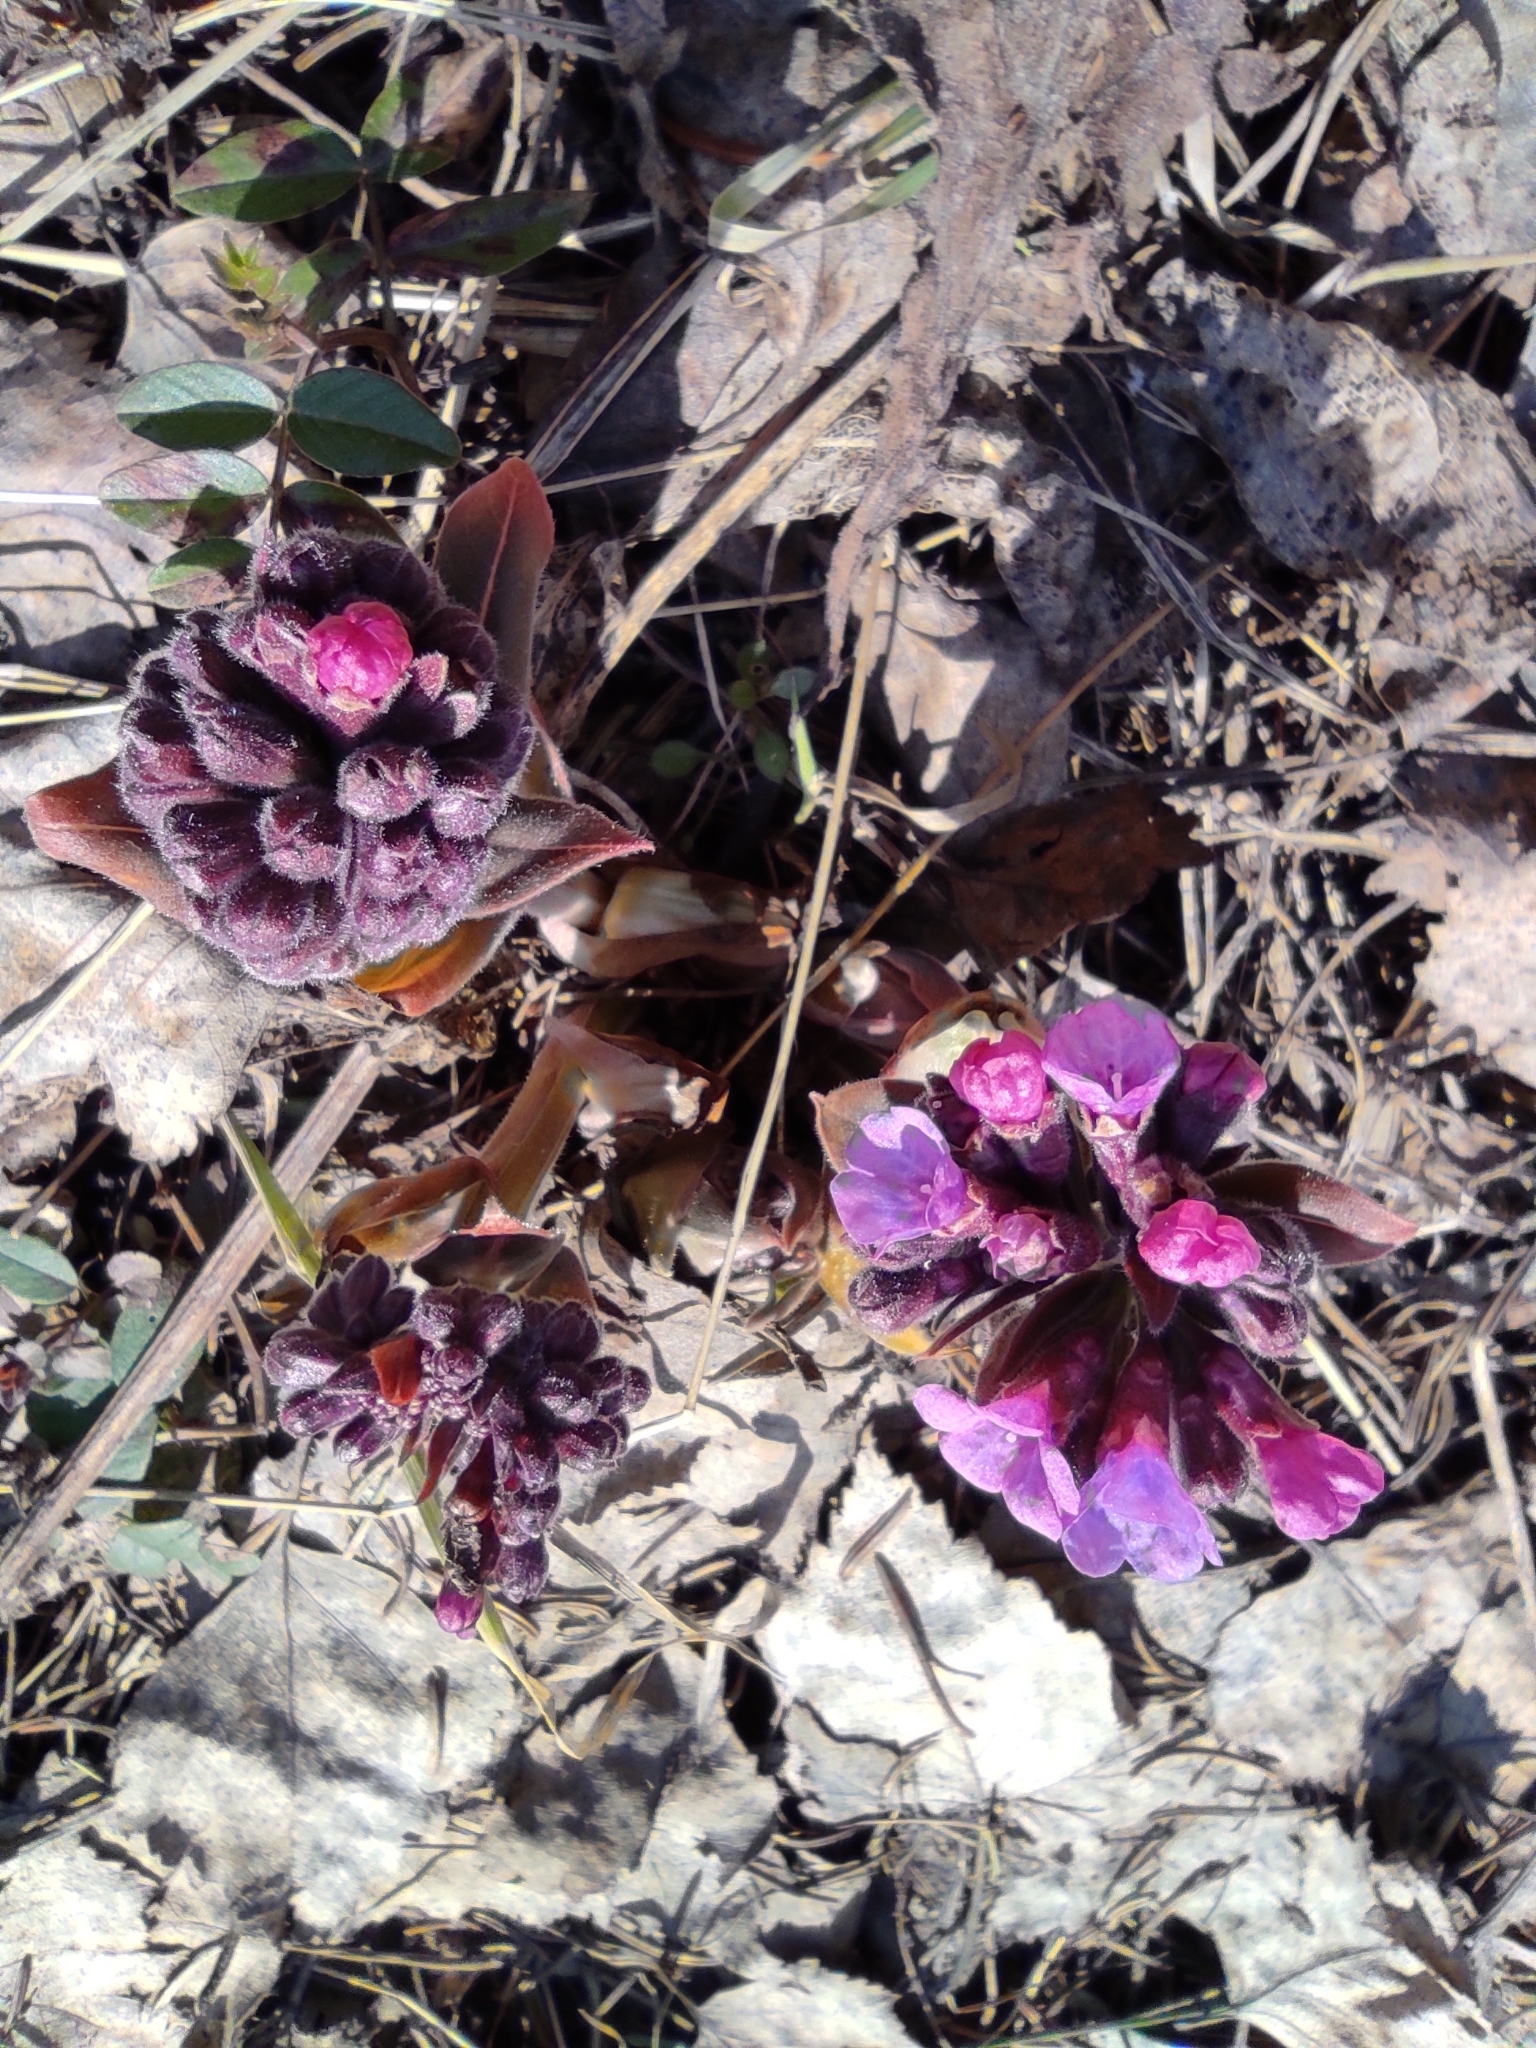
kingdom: Plantae
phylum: Tracheophyta
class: Magnoliopsida
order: Boraginales
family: Boraginaceae
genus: Pulmonaria
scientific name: Pulmonaria mollis
